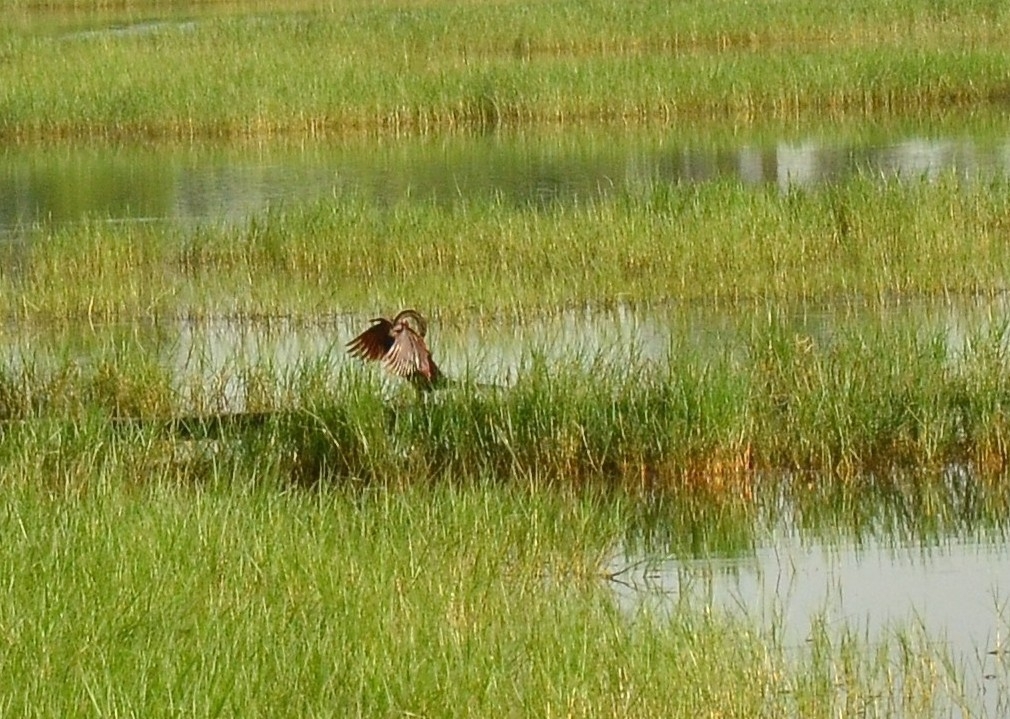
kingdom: Animalia
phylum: Chordata
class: Aves
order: Suliformes
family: Anhingidae
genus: Anhinga
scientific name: Anhinga melanogaster
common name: Oriental darter
